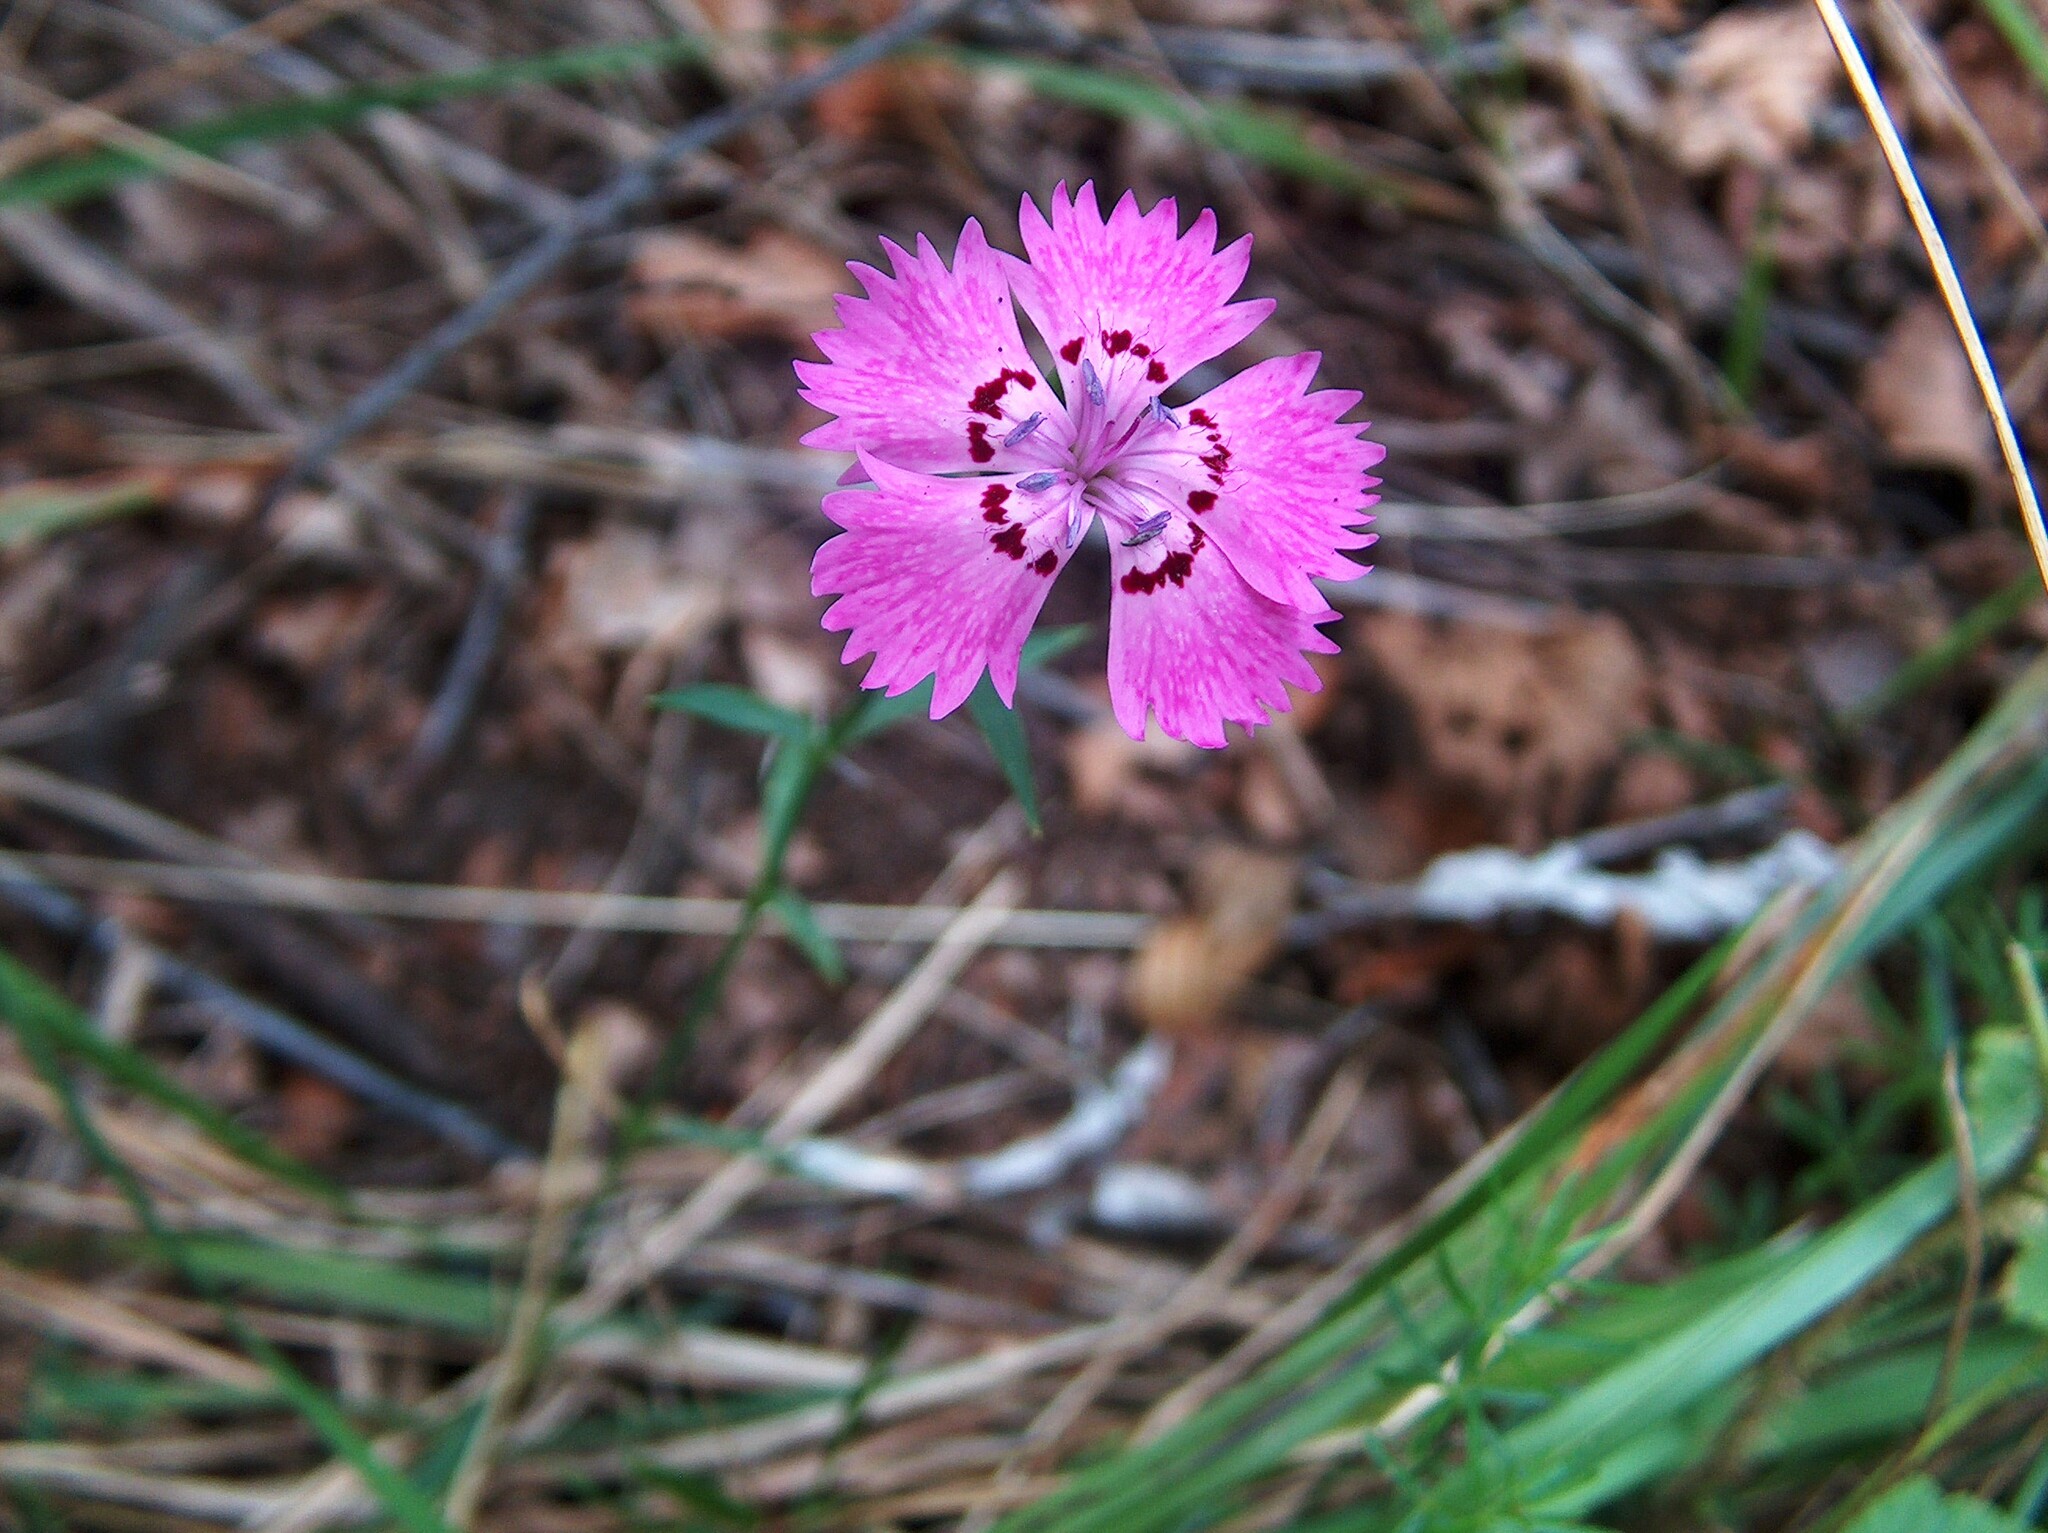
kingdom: Plantae
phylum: Tracheophyta
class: Magnoliopsida
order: Caryophyllales
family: Caryophyllaceae
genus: Dianthus
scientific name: Dianthus seguieri
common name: Ragged pink
